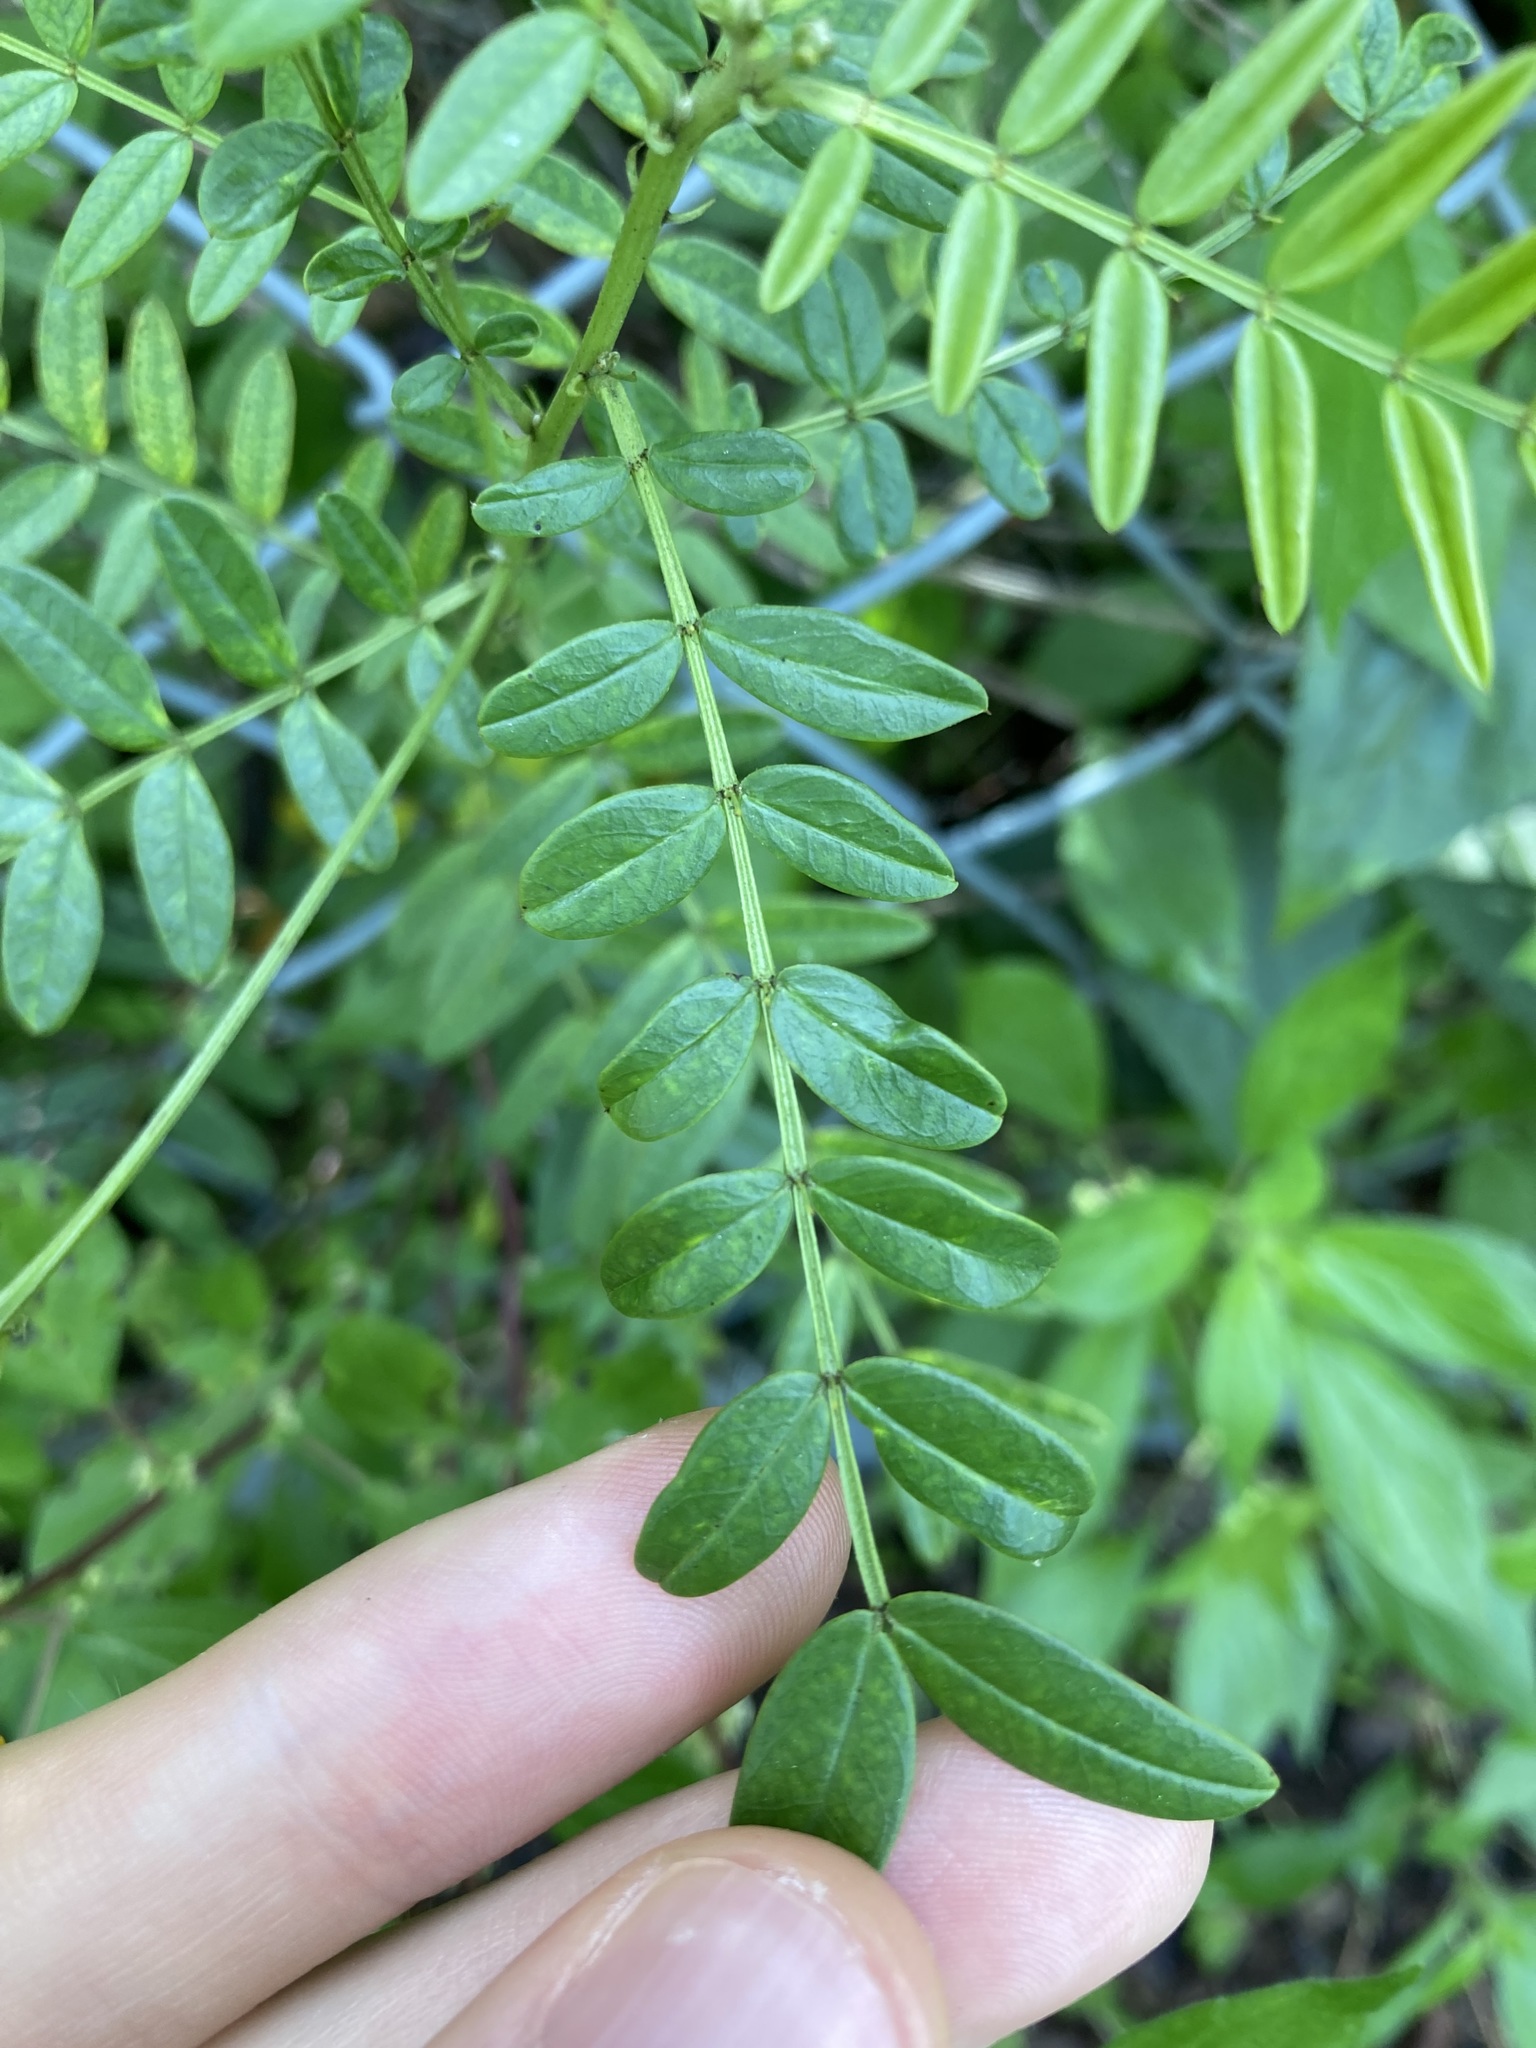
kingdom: Plantae
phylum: Tracheophyta
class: Magnoliopsida
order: Fabales
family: Fabaceae
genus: Senna
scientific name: Senna barronfieldii
